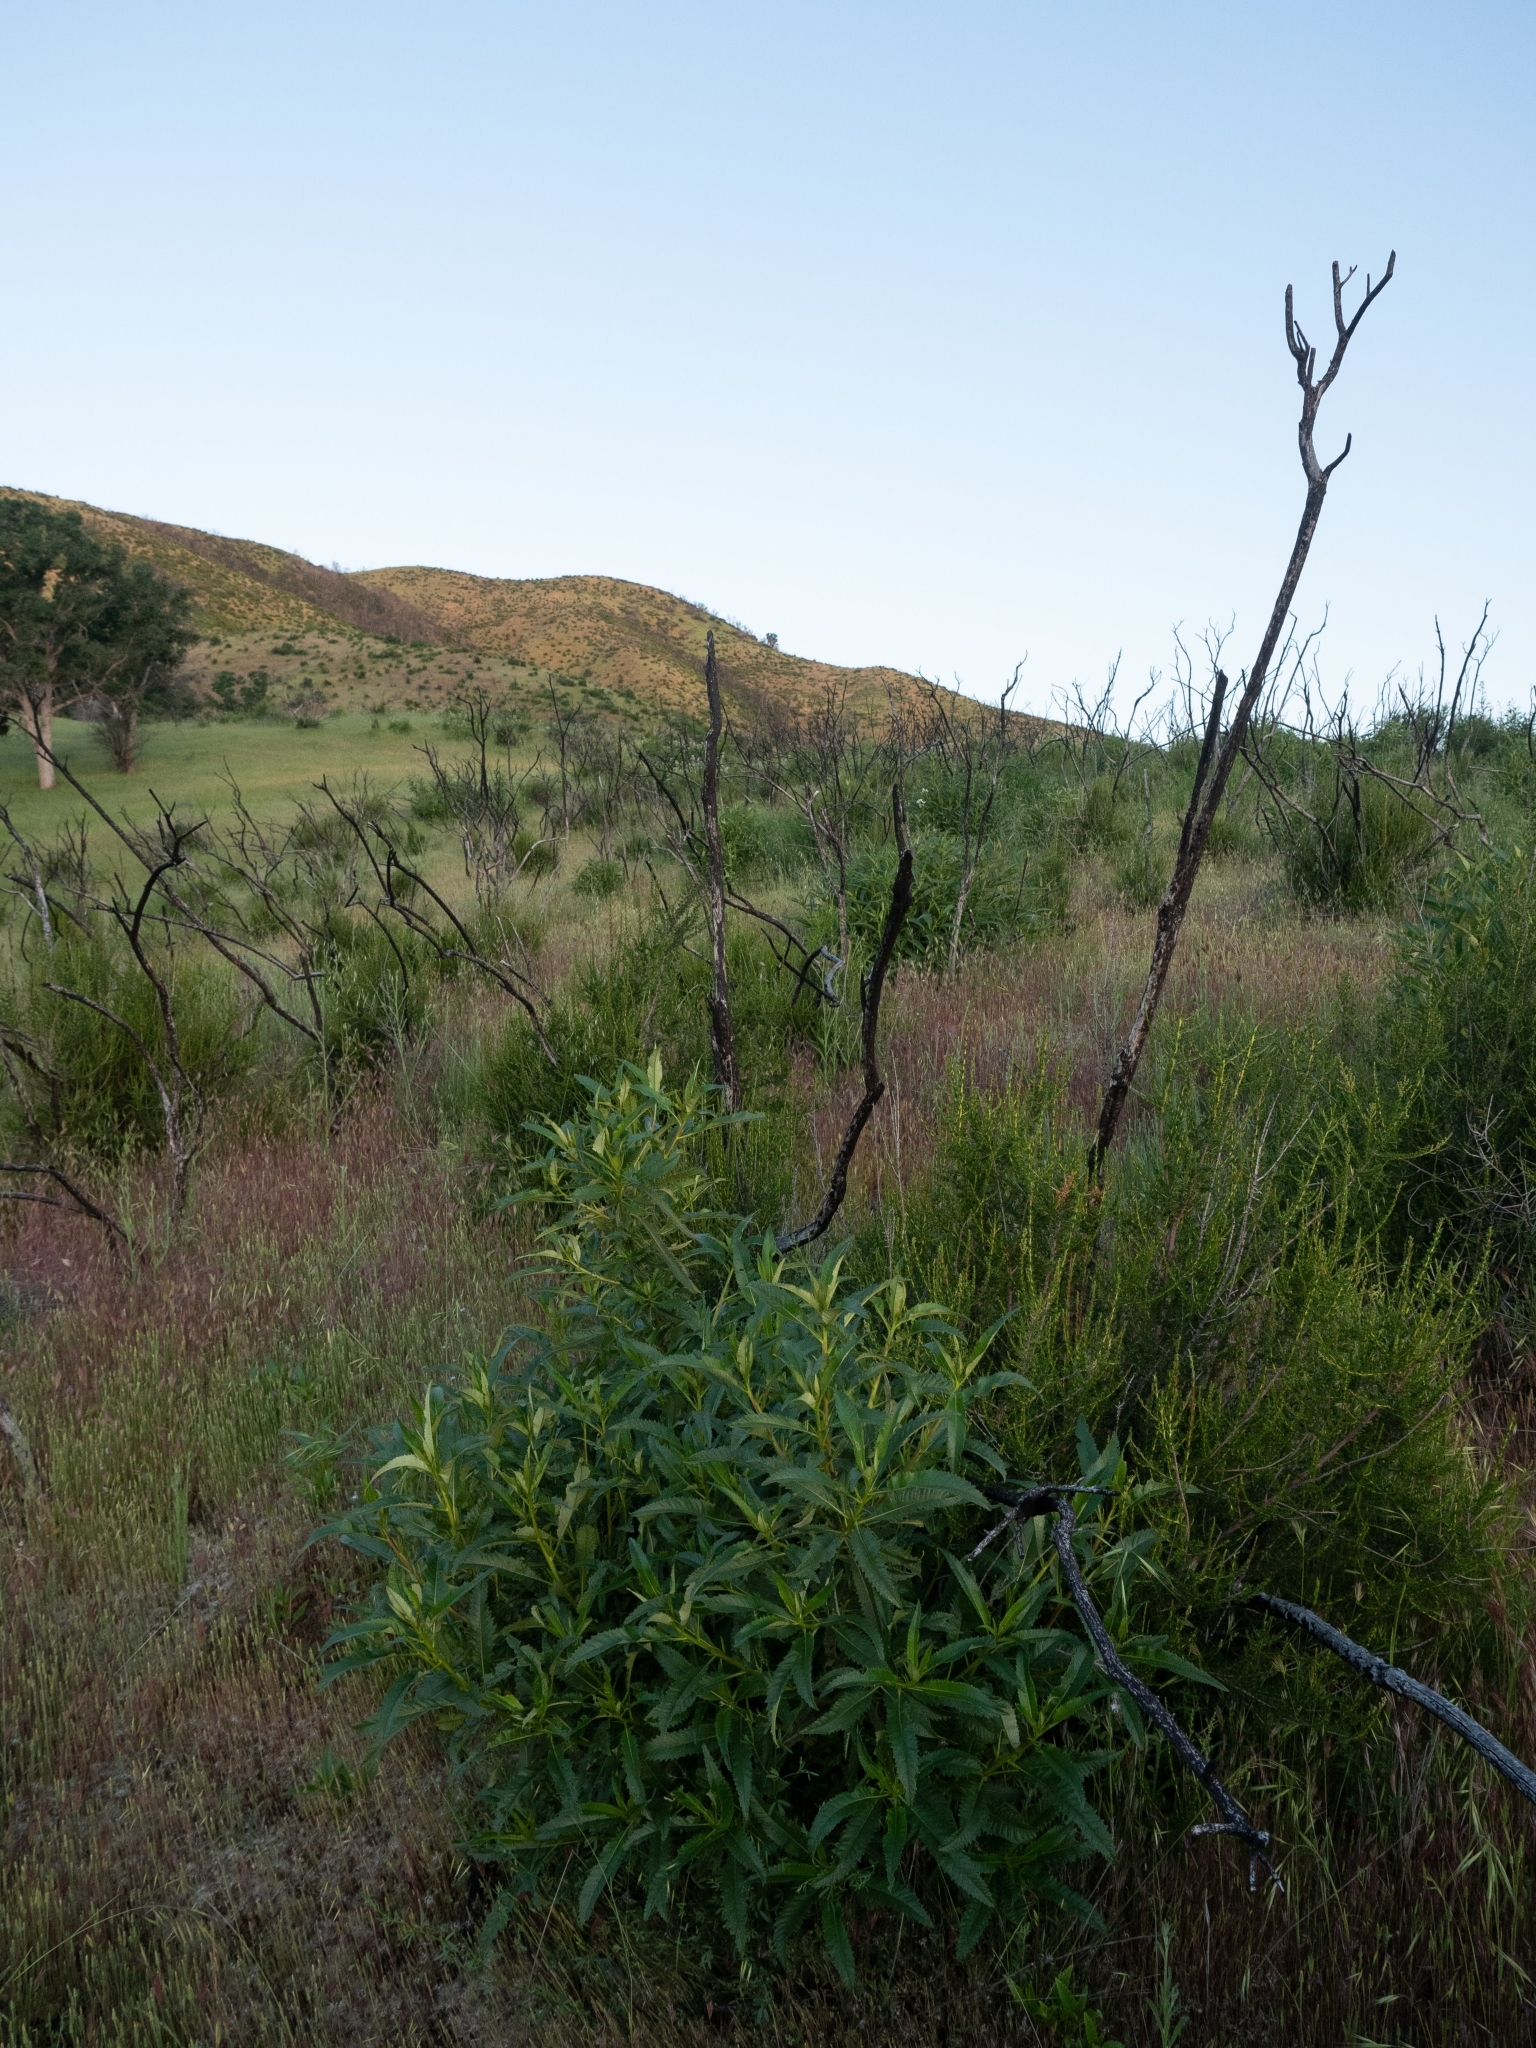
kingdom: Plantae
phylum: Tracheophyta
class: Magnoliopsida
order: Boraginales
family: Namaceae
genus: Eriodictyon
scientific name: Eriodictyon californicum
